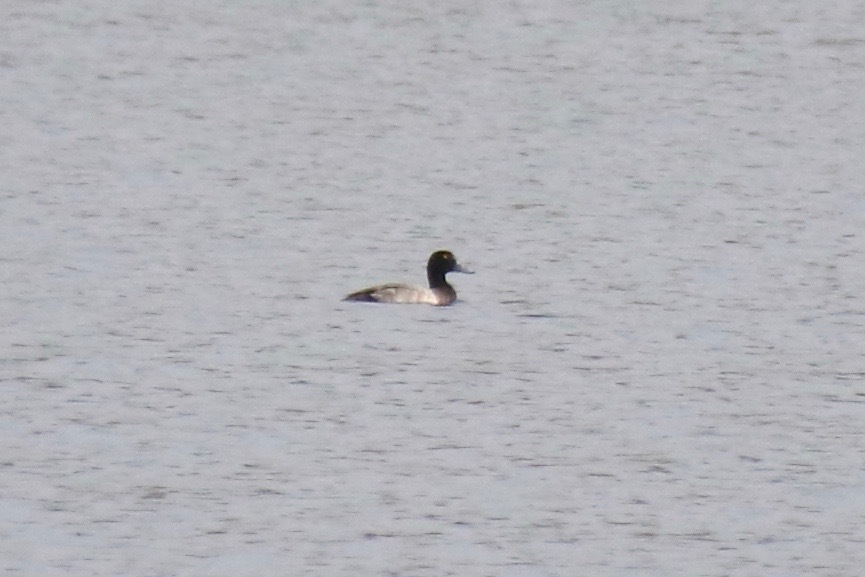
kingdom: Animalia
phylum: Chordata
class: Aves
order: Anseriformes
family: Anatidae
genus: Aythya
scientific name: Aythya marila
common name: Greater scaup
